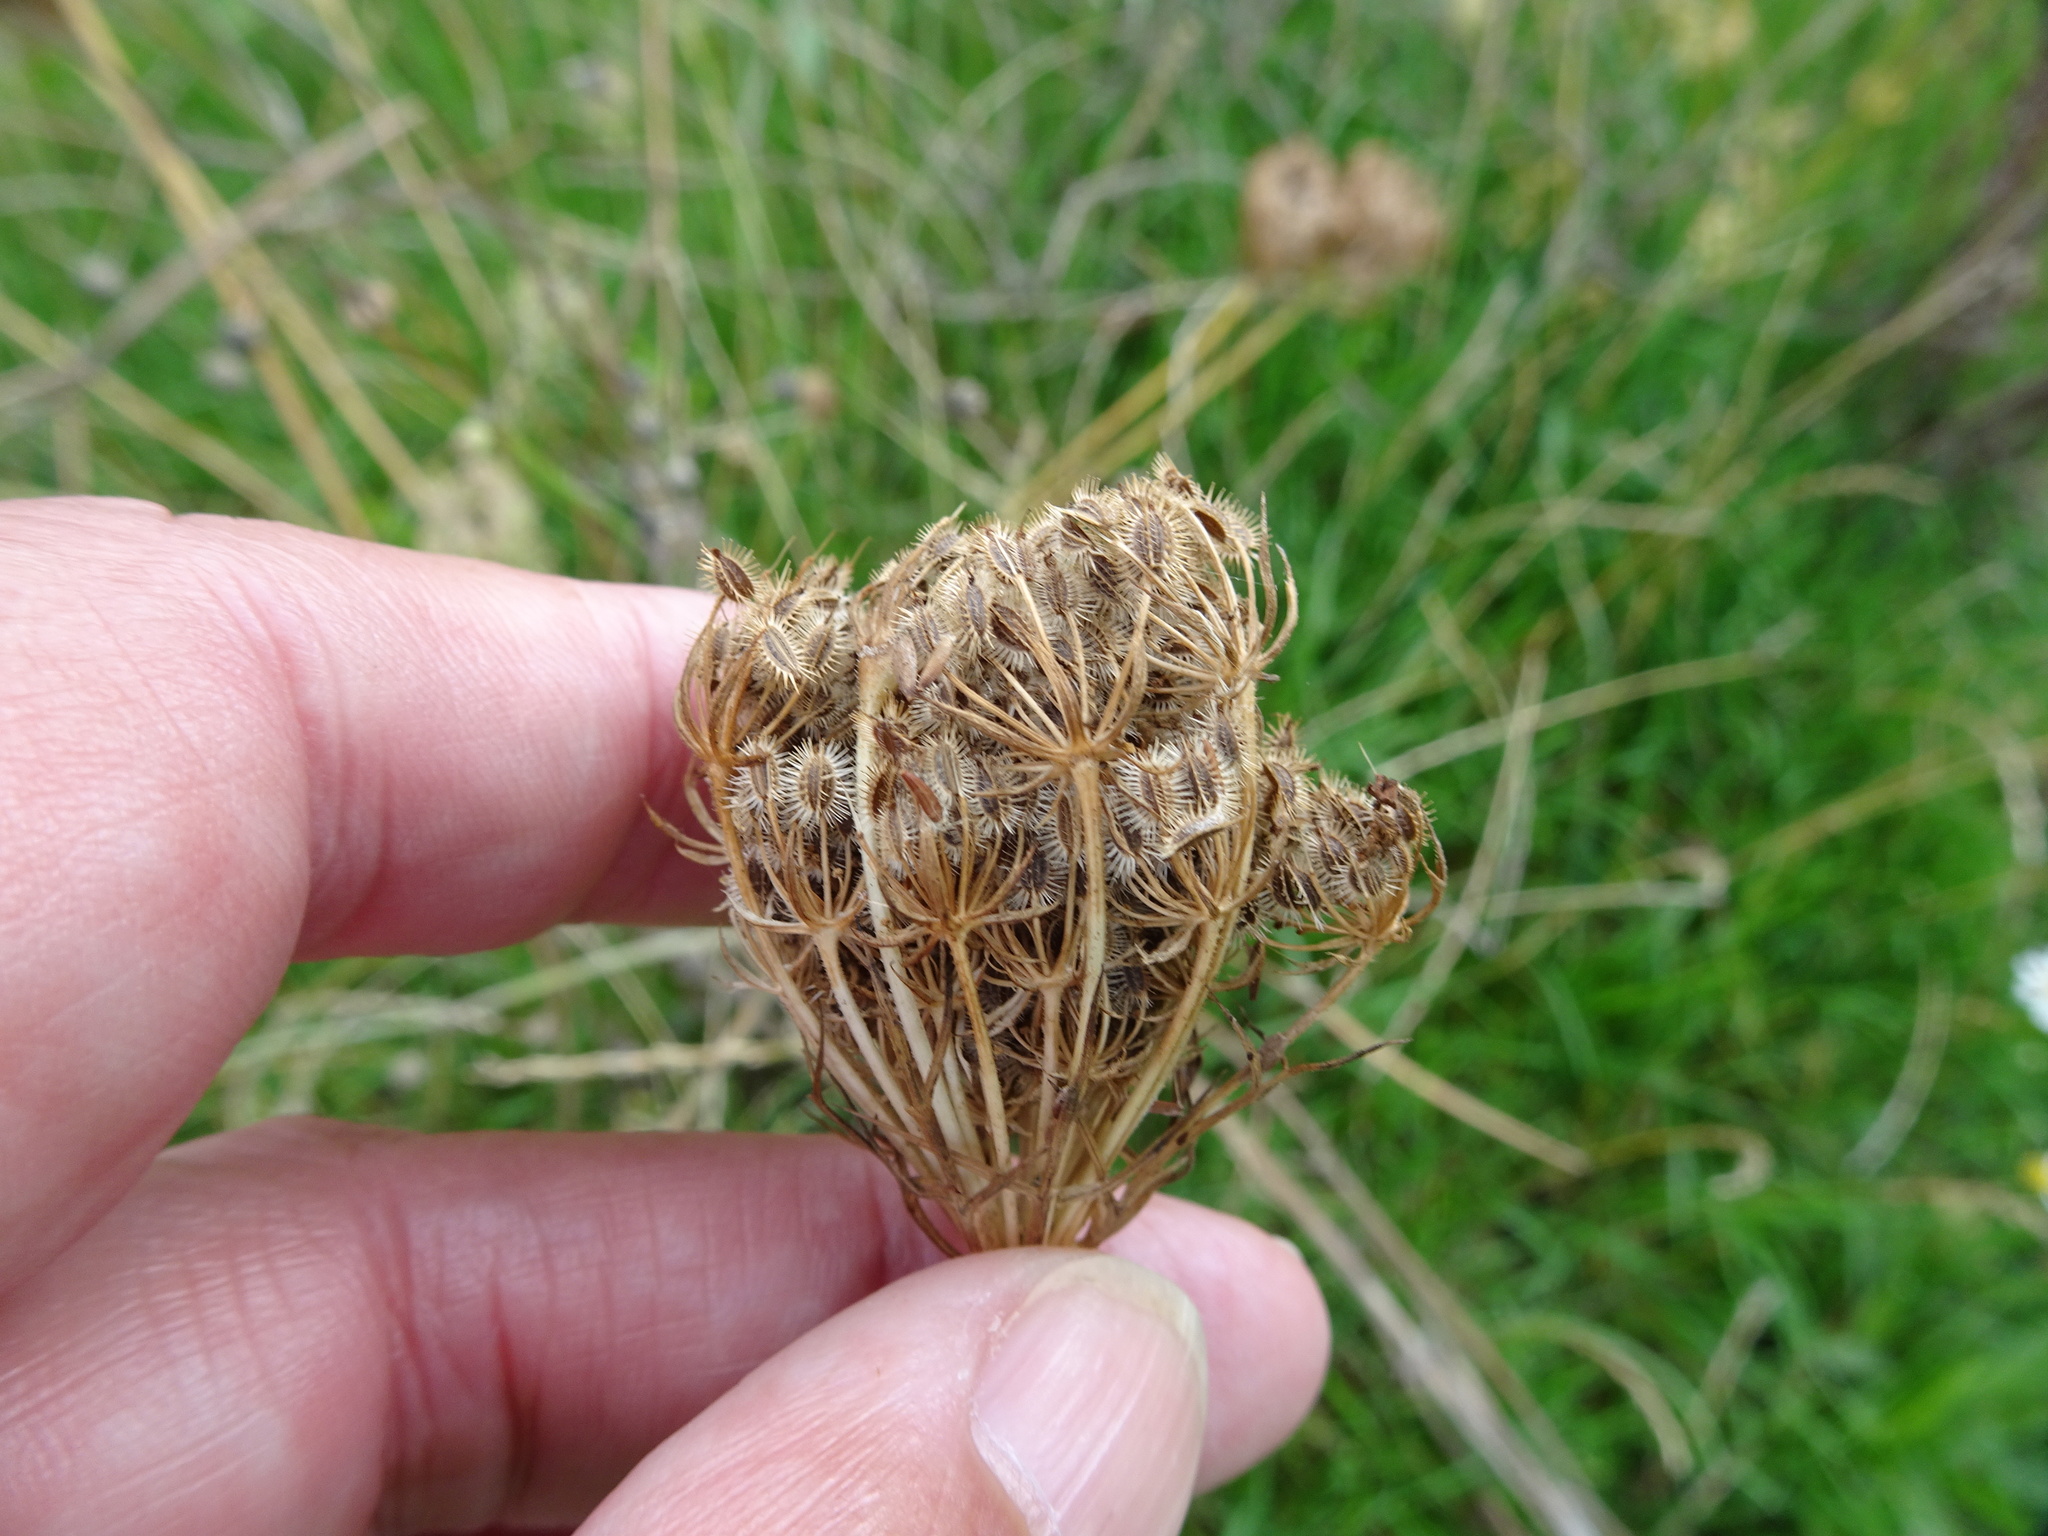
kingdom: Plantae
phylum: Tracheophyta
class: Magnoliopsida
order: Apiales
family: Apiaceae
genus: Daucus
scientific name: Daucus carota
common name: Wild carrot
